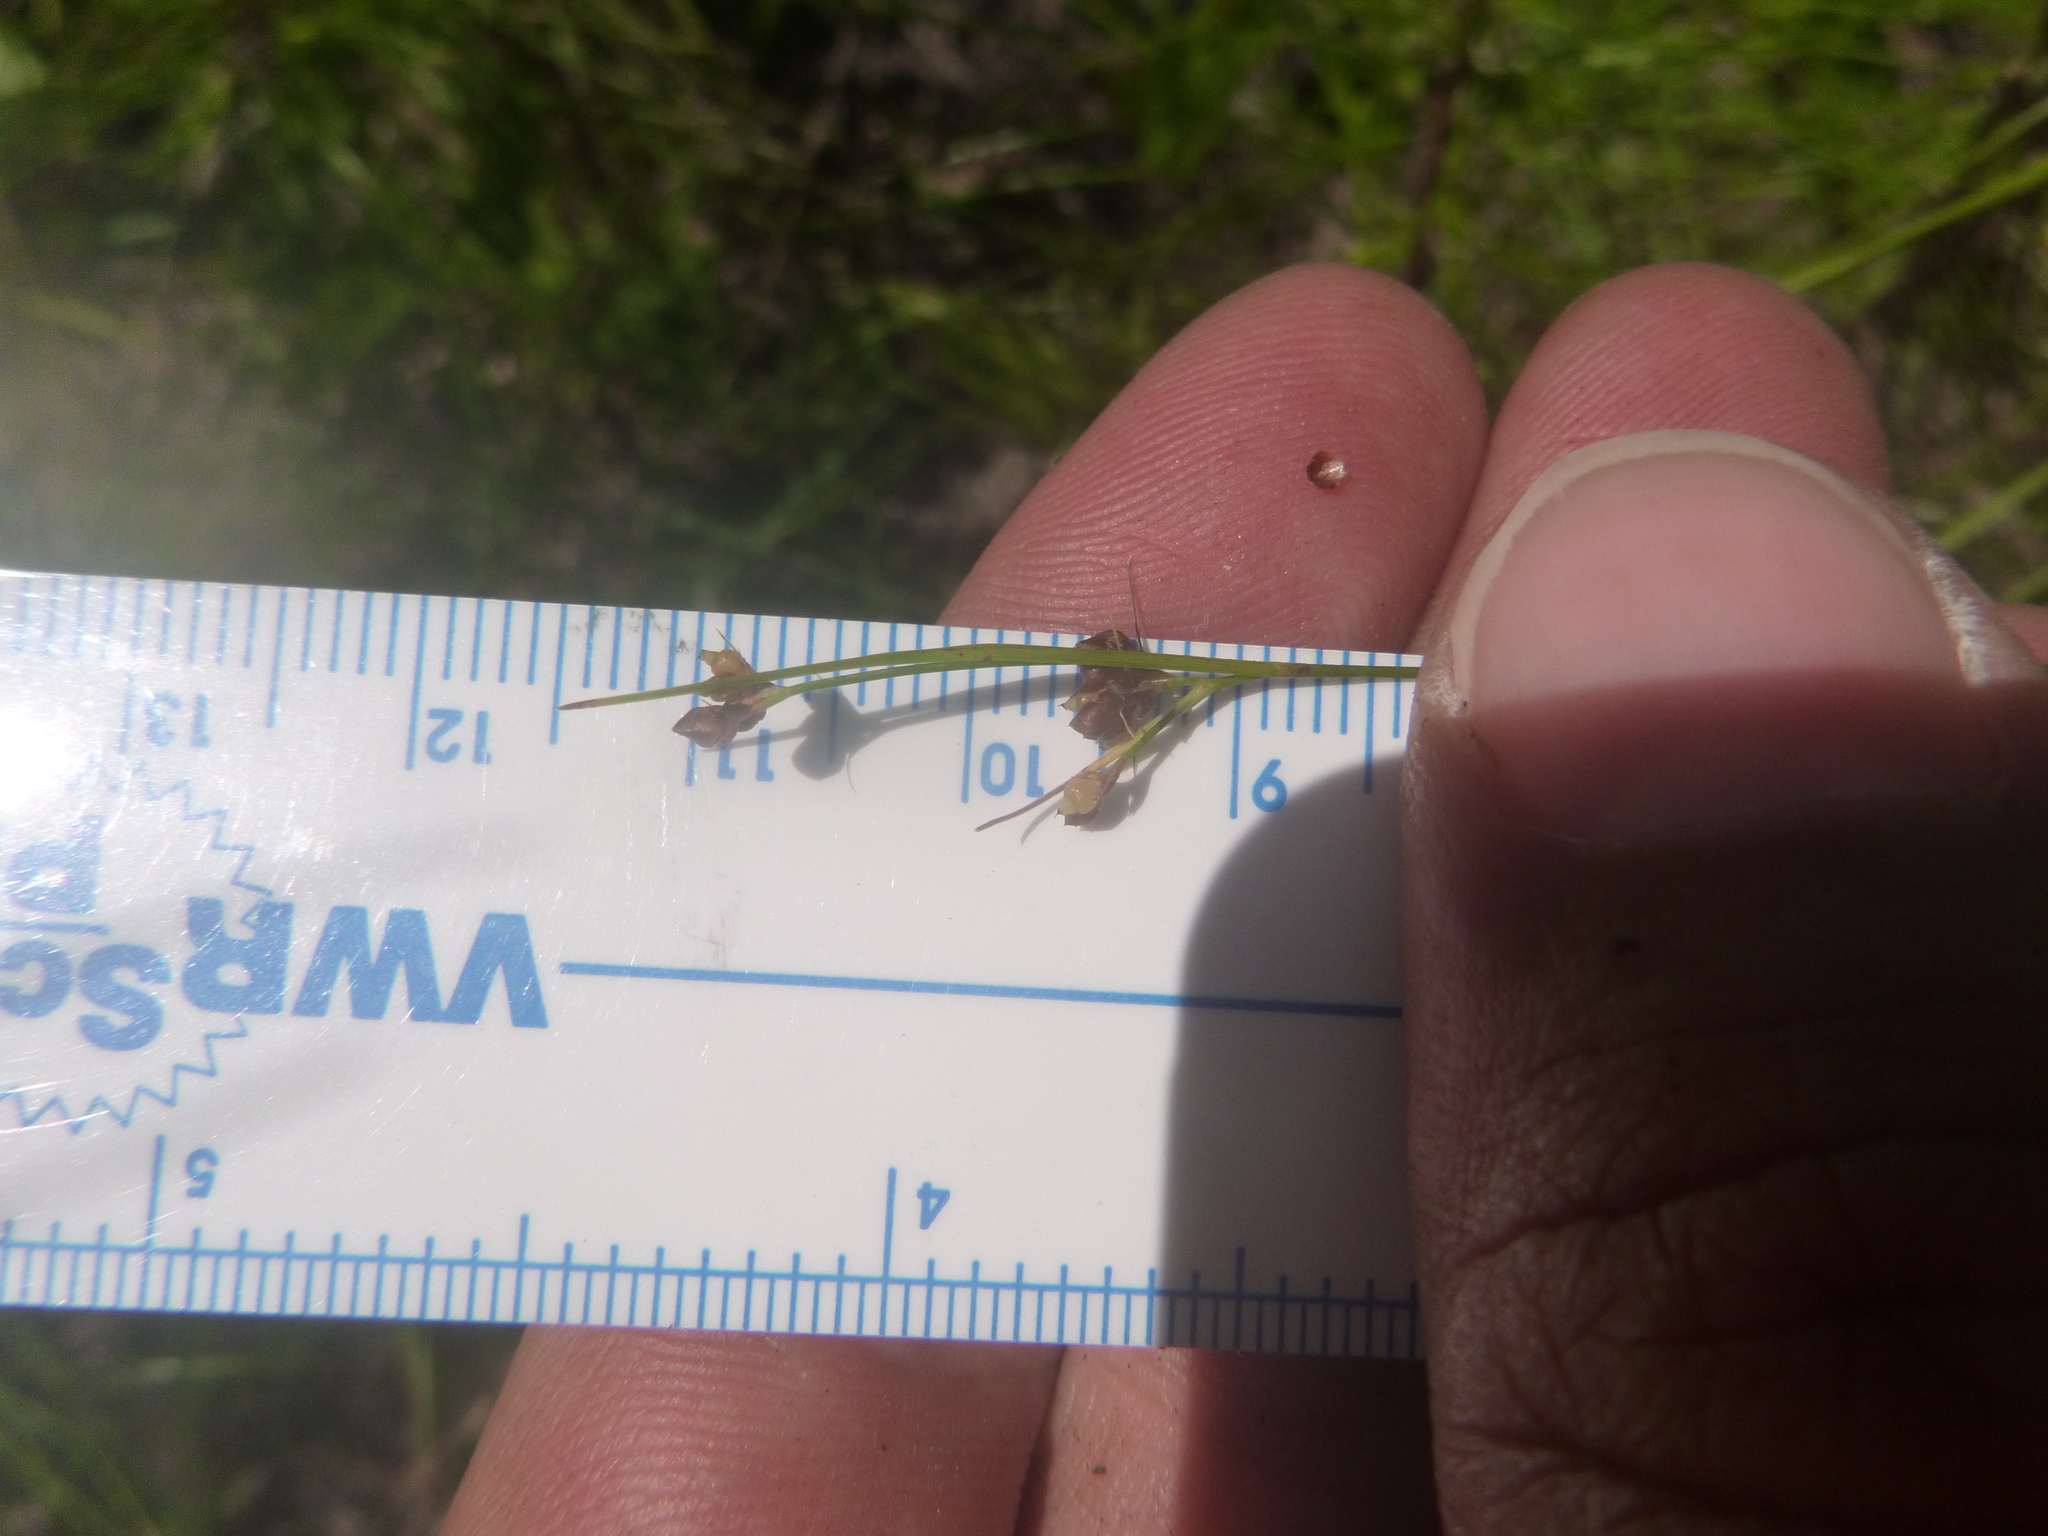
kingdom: Plantae
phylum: Tracheophyta
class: Liliopsida
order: Poales
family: Cyperaceae
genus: Rhynchospora
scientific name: Rhynchospora globularis
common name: Globe beaksedge
